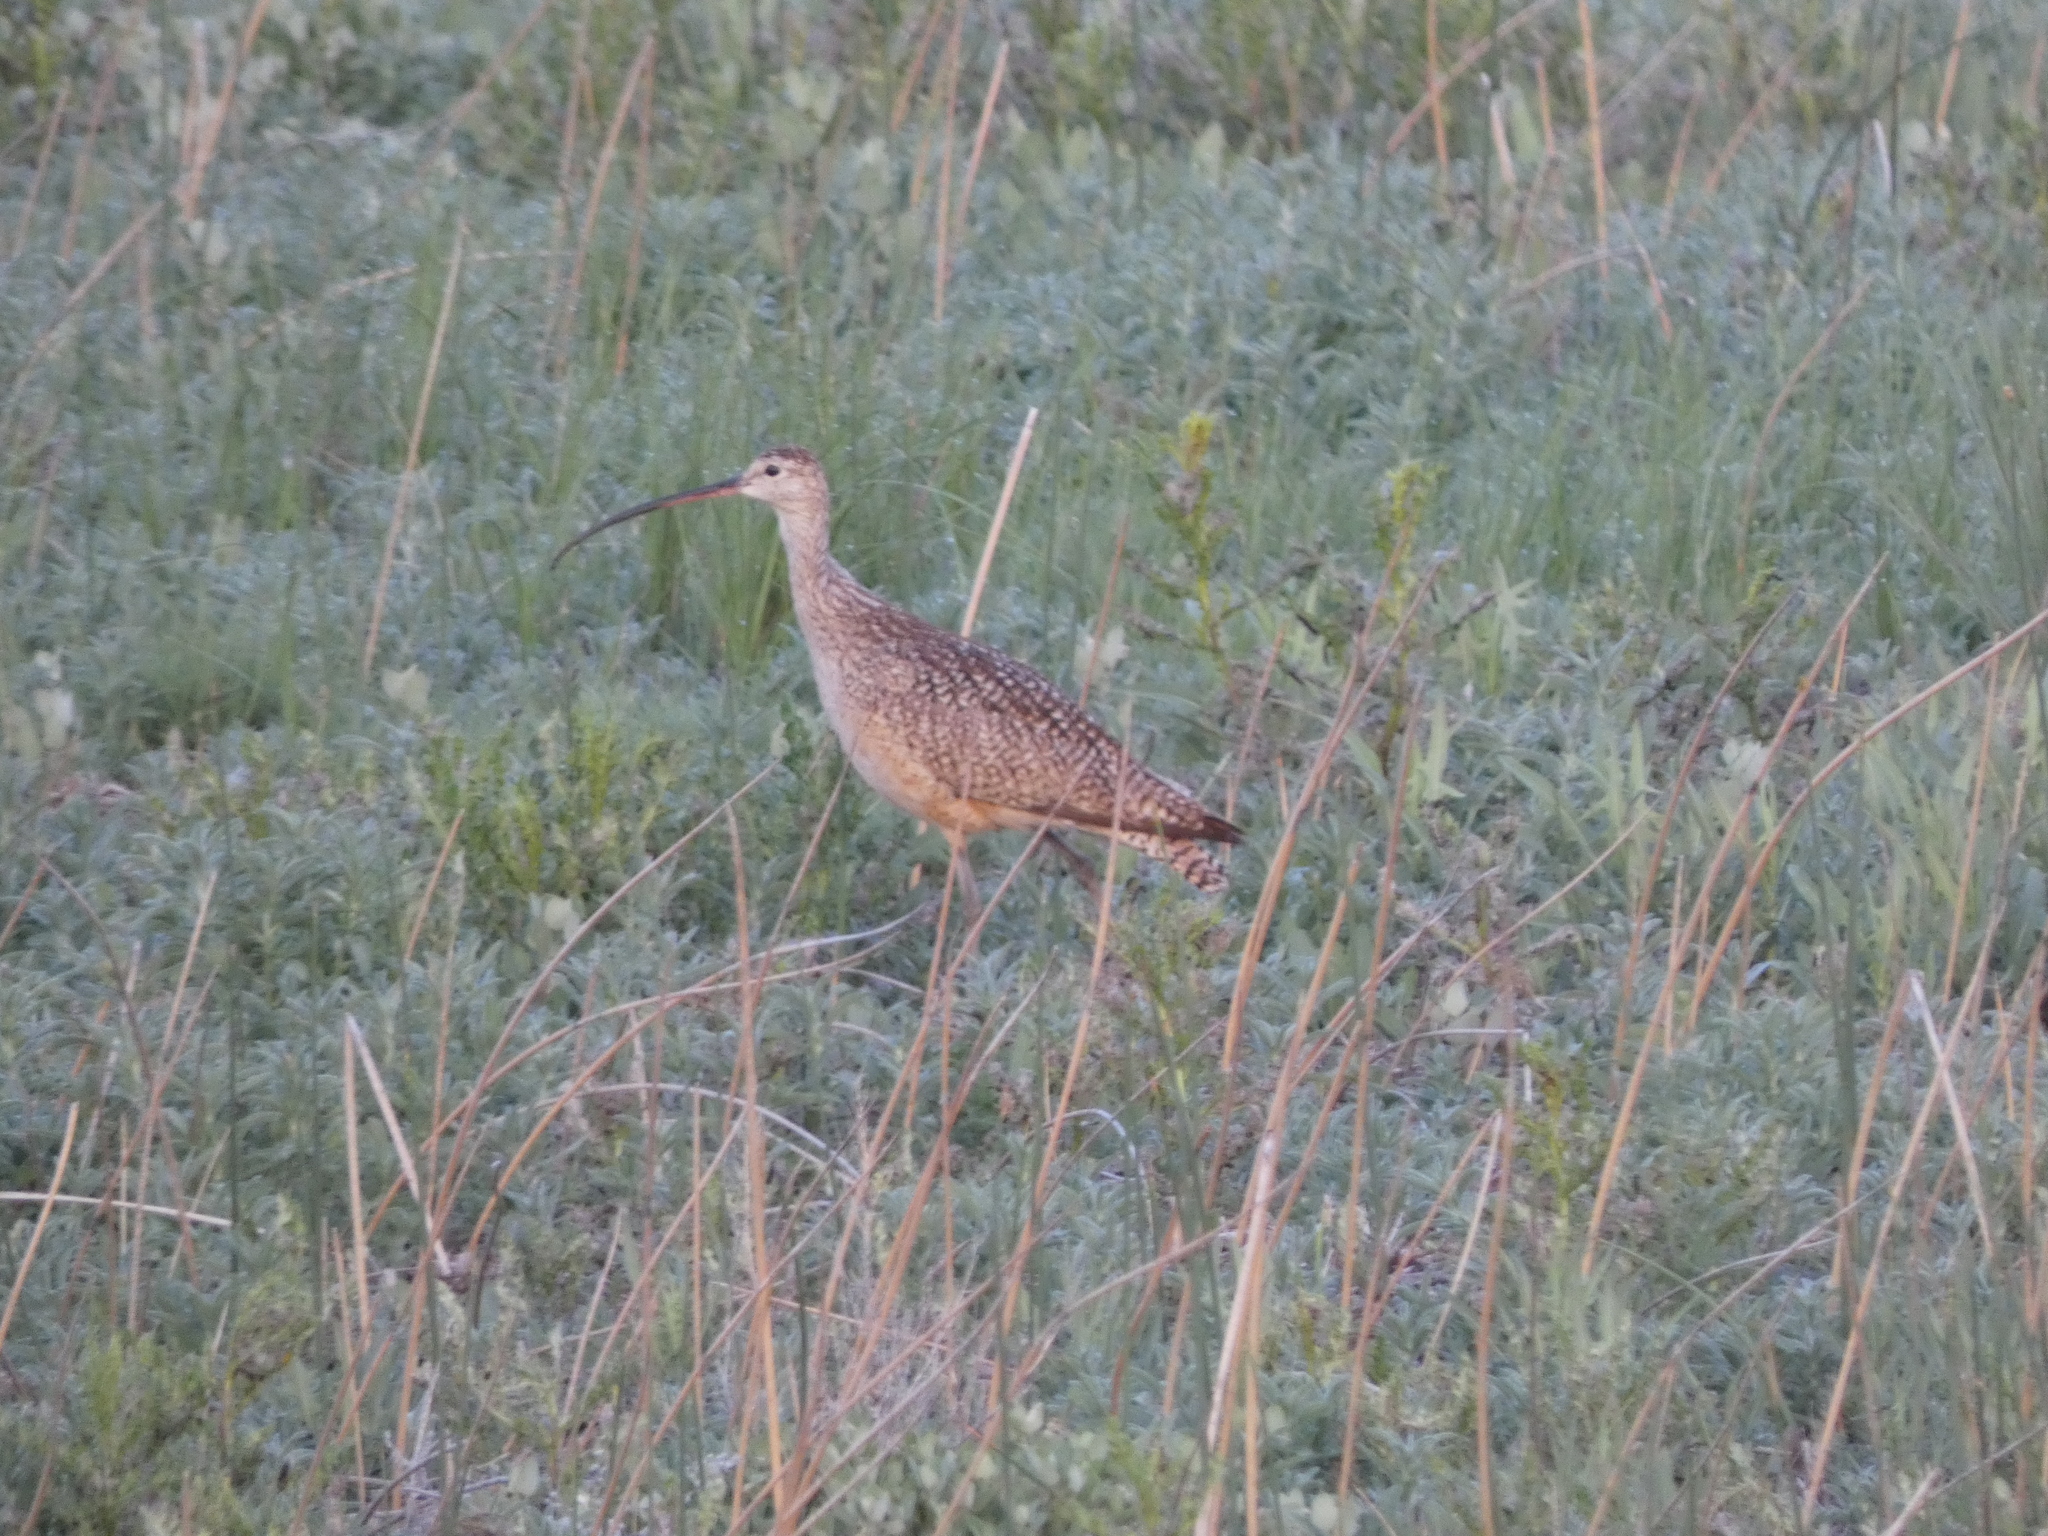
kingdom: Animalia
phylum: Chordata
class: Aves
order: Charadriiformes
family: Scolopacidae
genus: Numenius
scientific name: Numenius americanus
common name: Long-billed curlew
